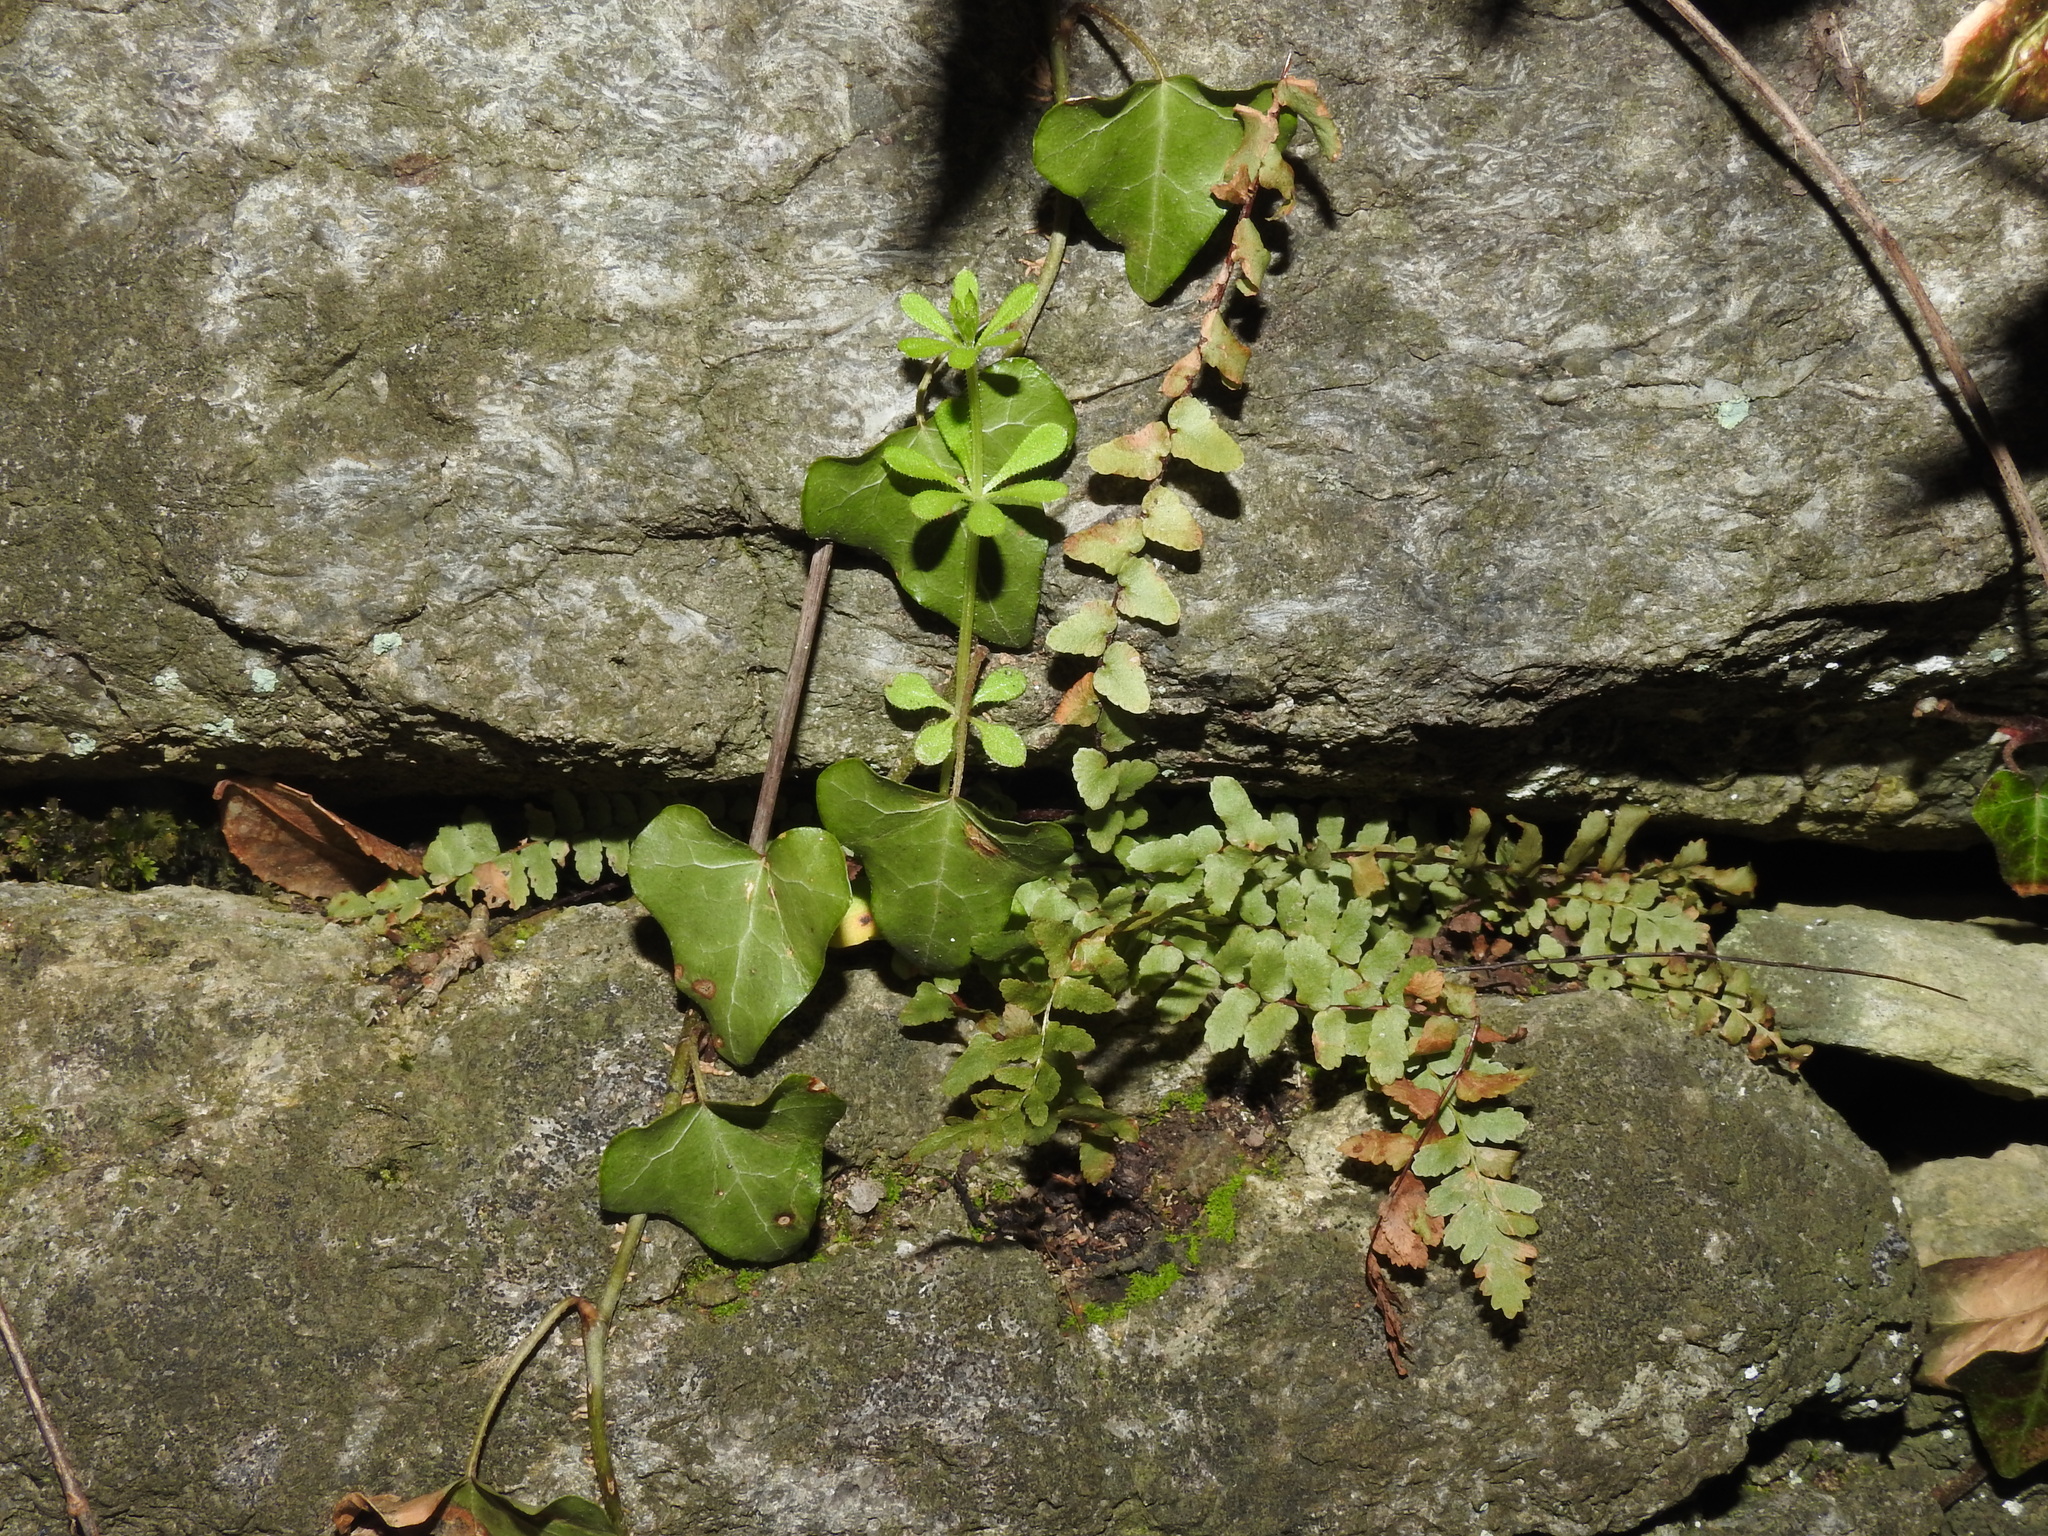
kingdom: Plantae
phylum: Tracheophyta
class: Polypodiopsida
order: Polypodiales
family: Aspleniaceae
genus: Asplenium
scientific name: Asplenium platyneuron
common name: Ebony spleenwort
